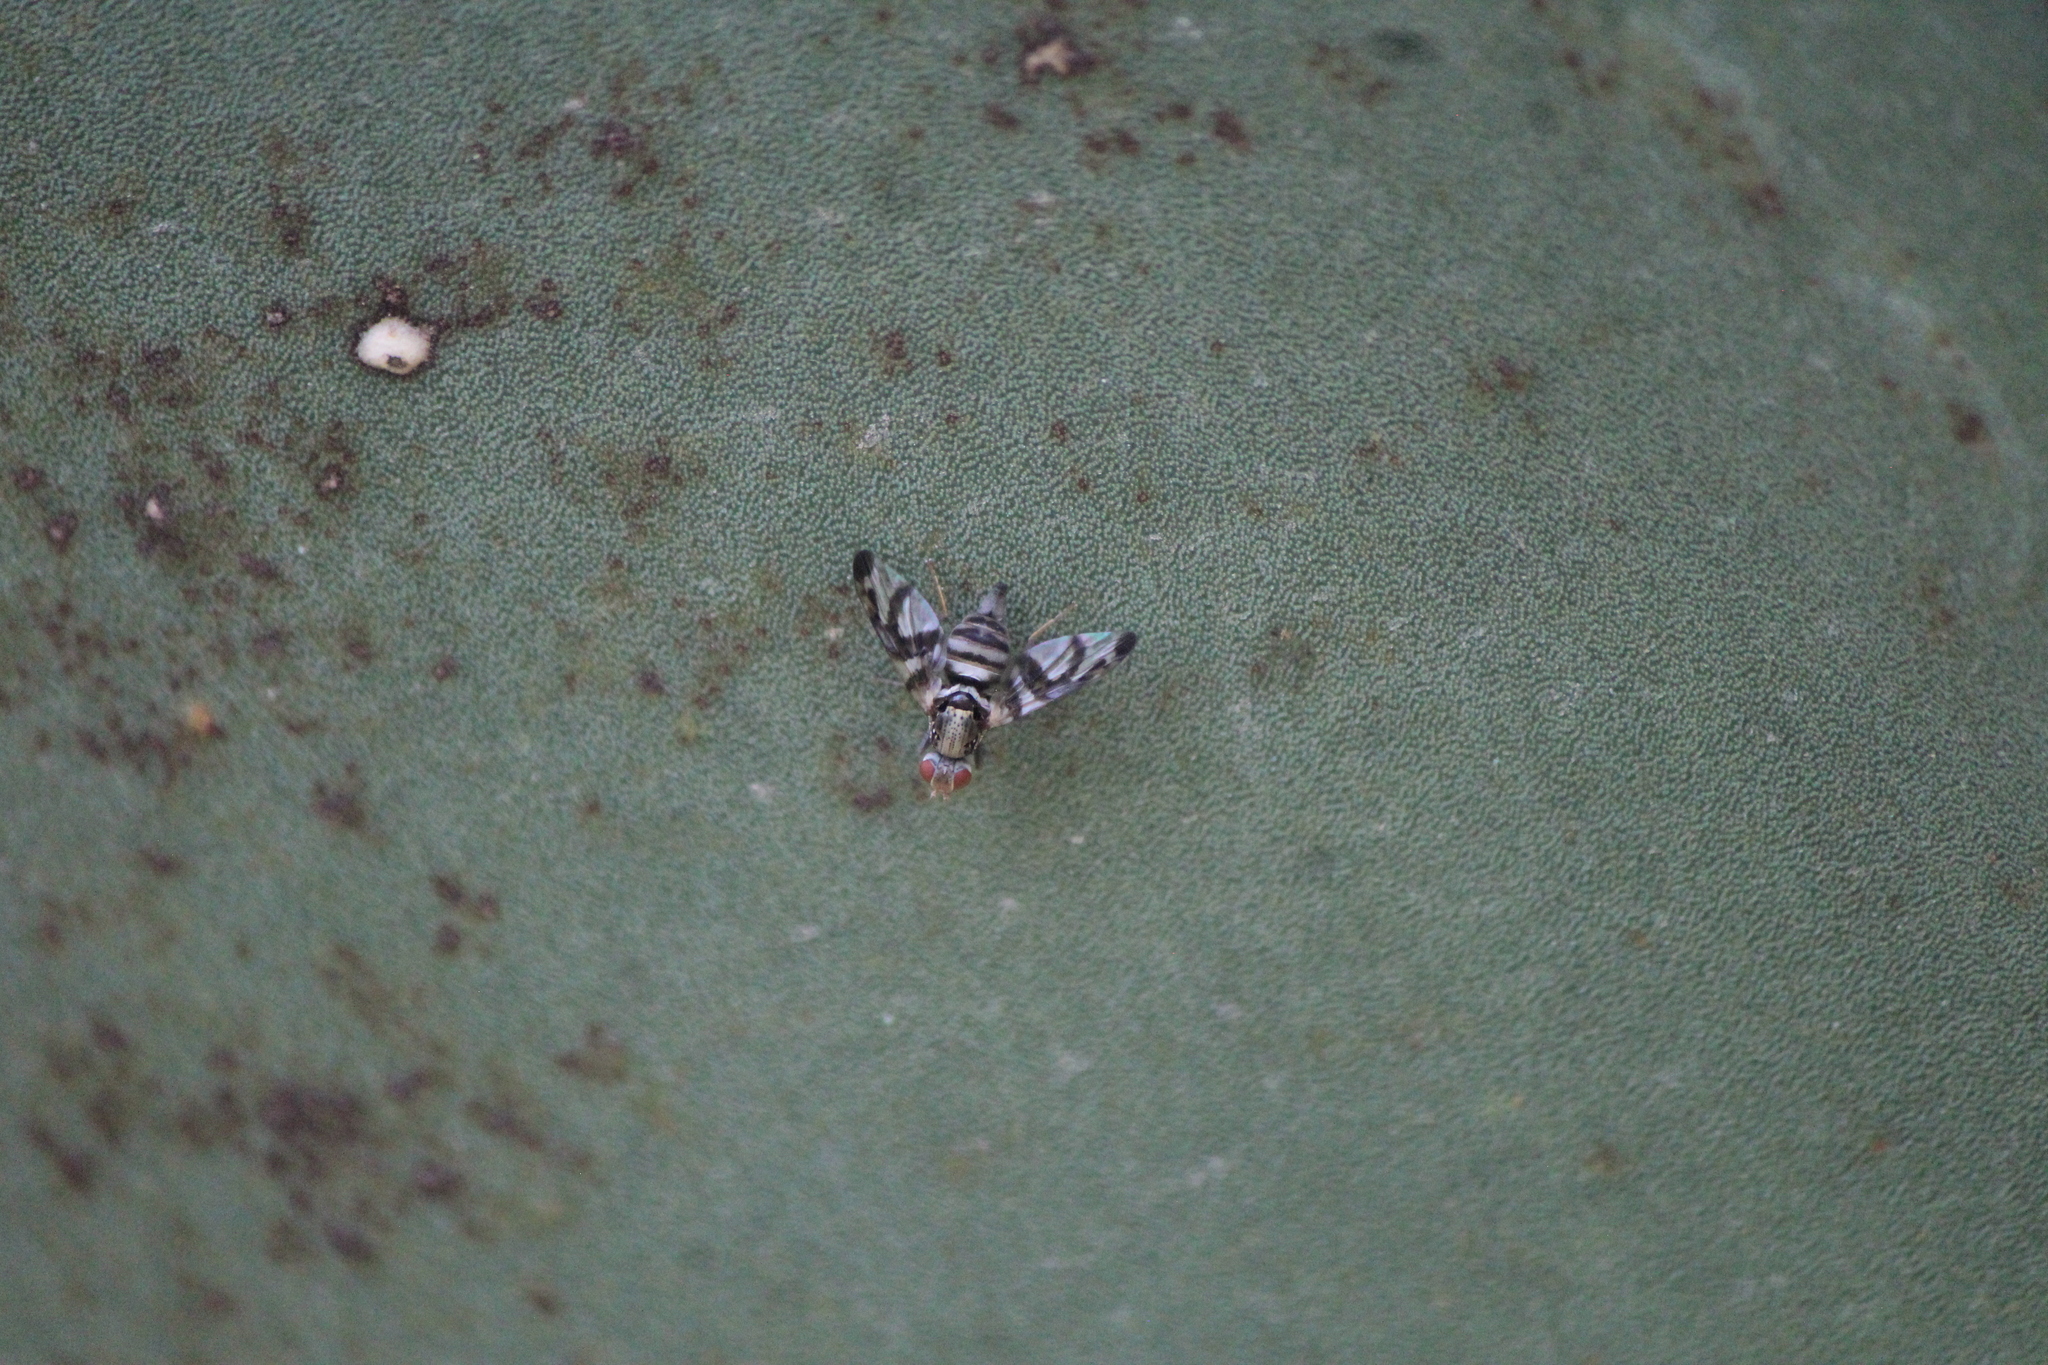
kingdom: Animalia
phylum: Arthropoda
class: Insecta
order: Diptera
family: Ulidiidae
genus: Pseudodyscrasis
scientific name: Pseudodyscrasis scutellaris
